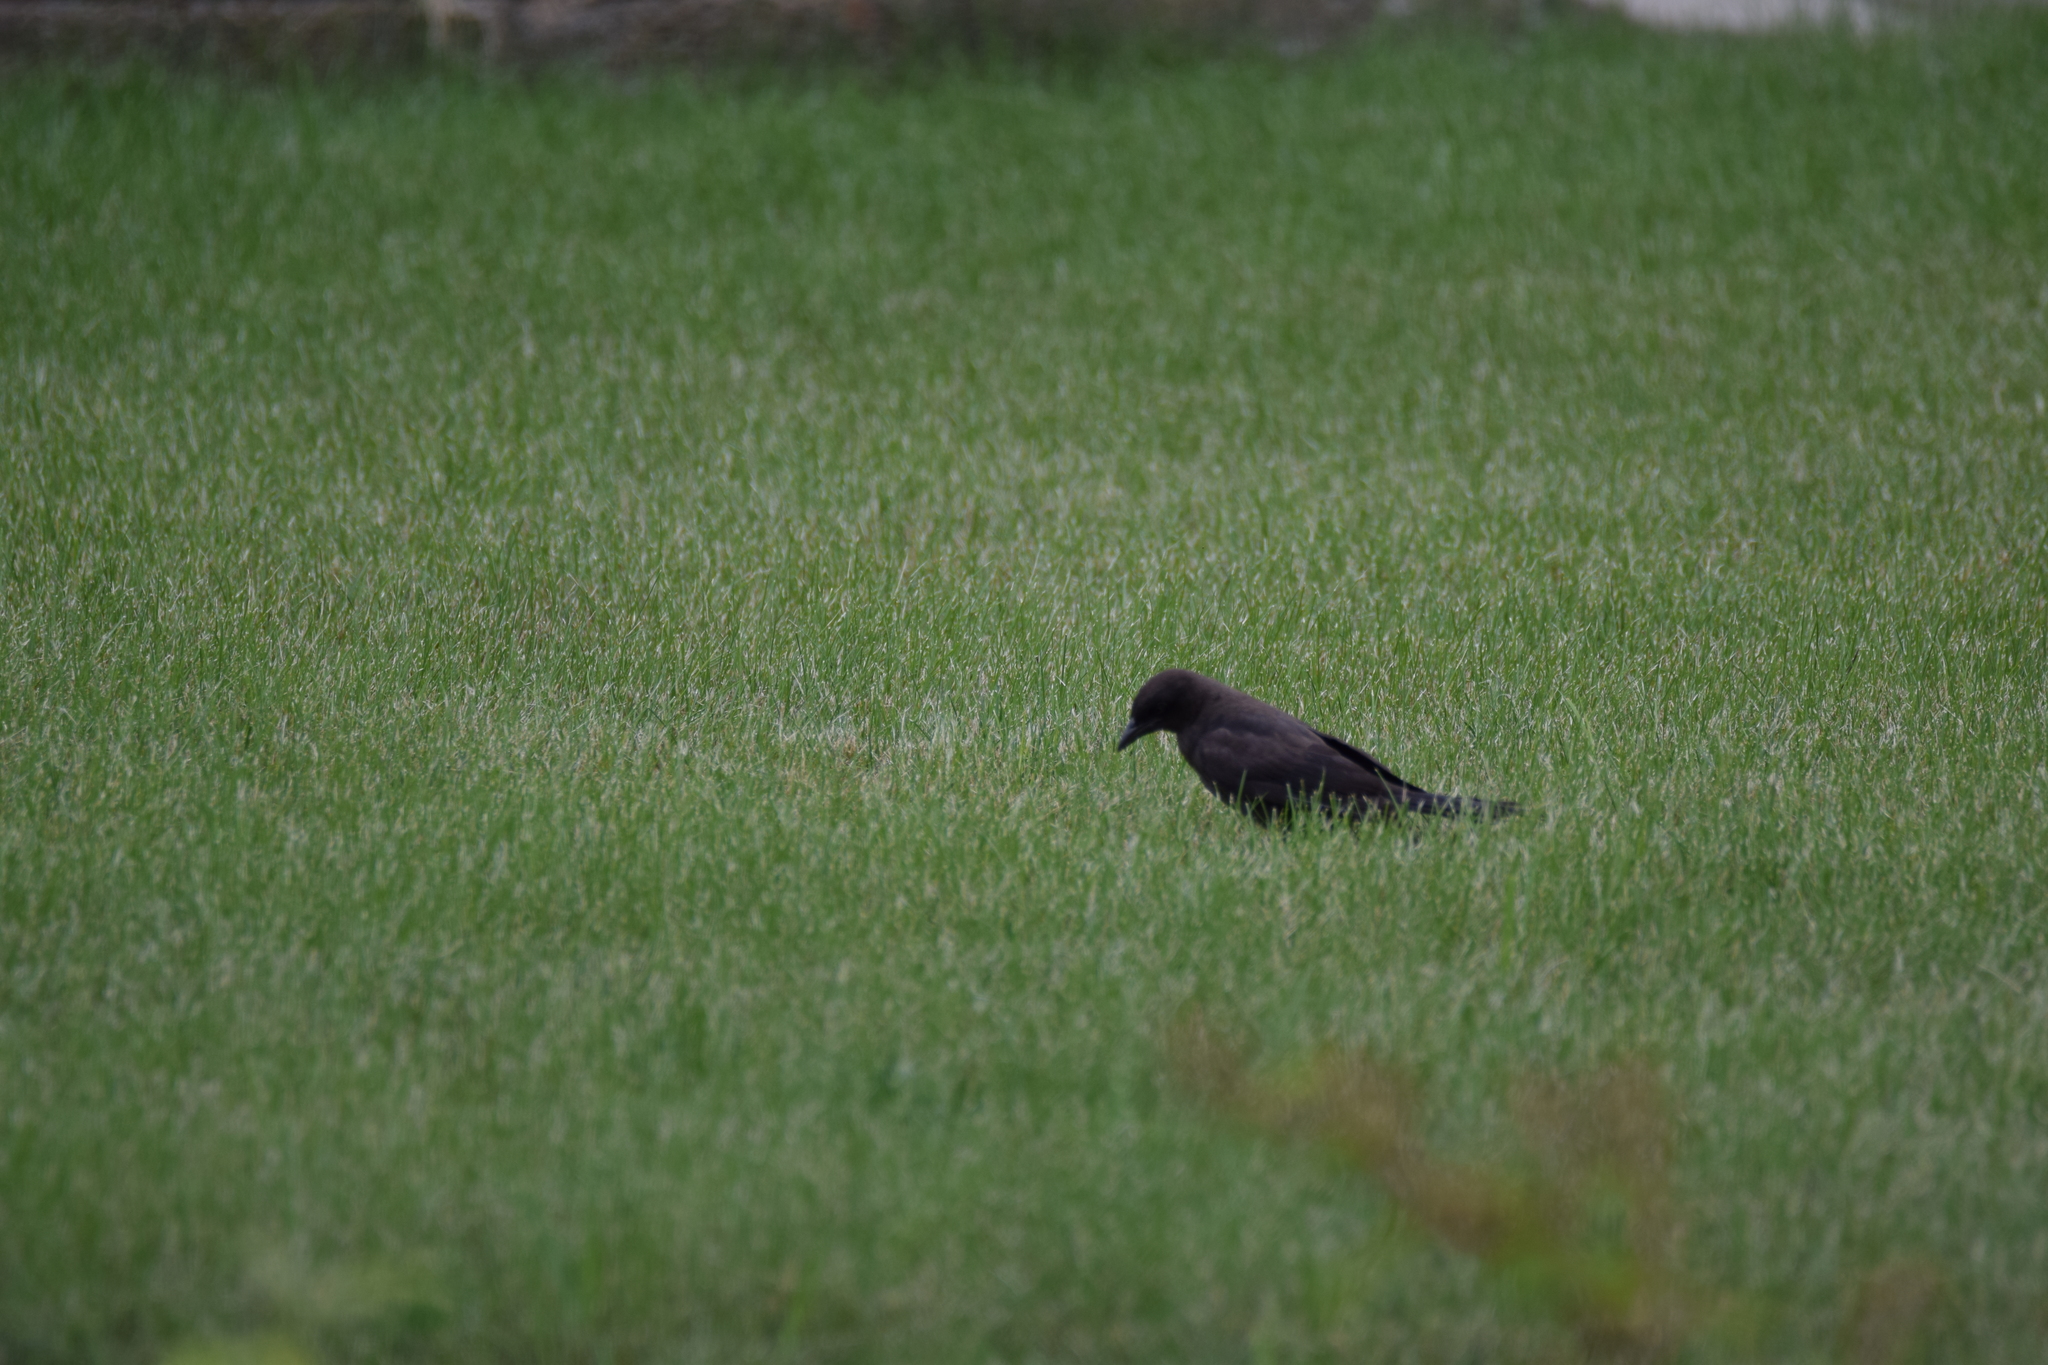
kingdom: Animalia
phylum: Chordata
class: Aves
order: Passeriformes
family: Icteridae
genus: Quiscalus
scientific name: Quiscalus quiscula
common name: Common grackle
